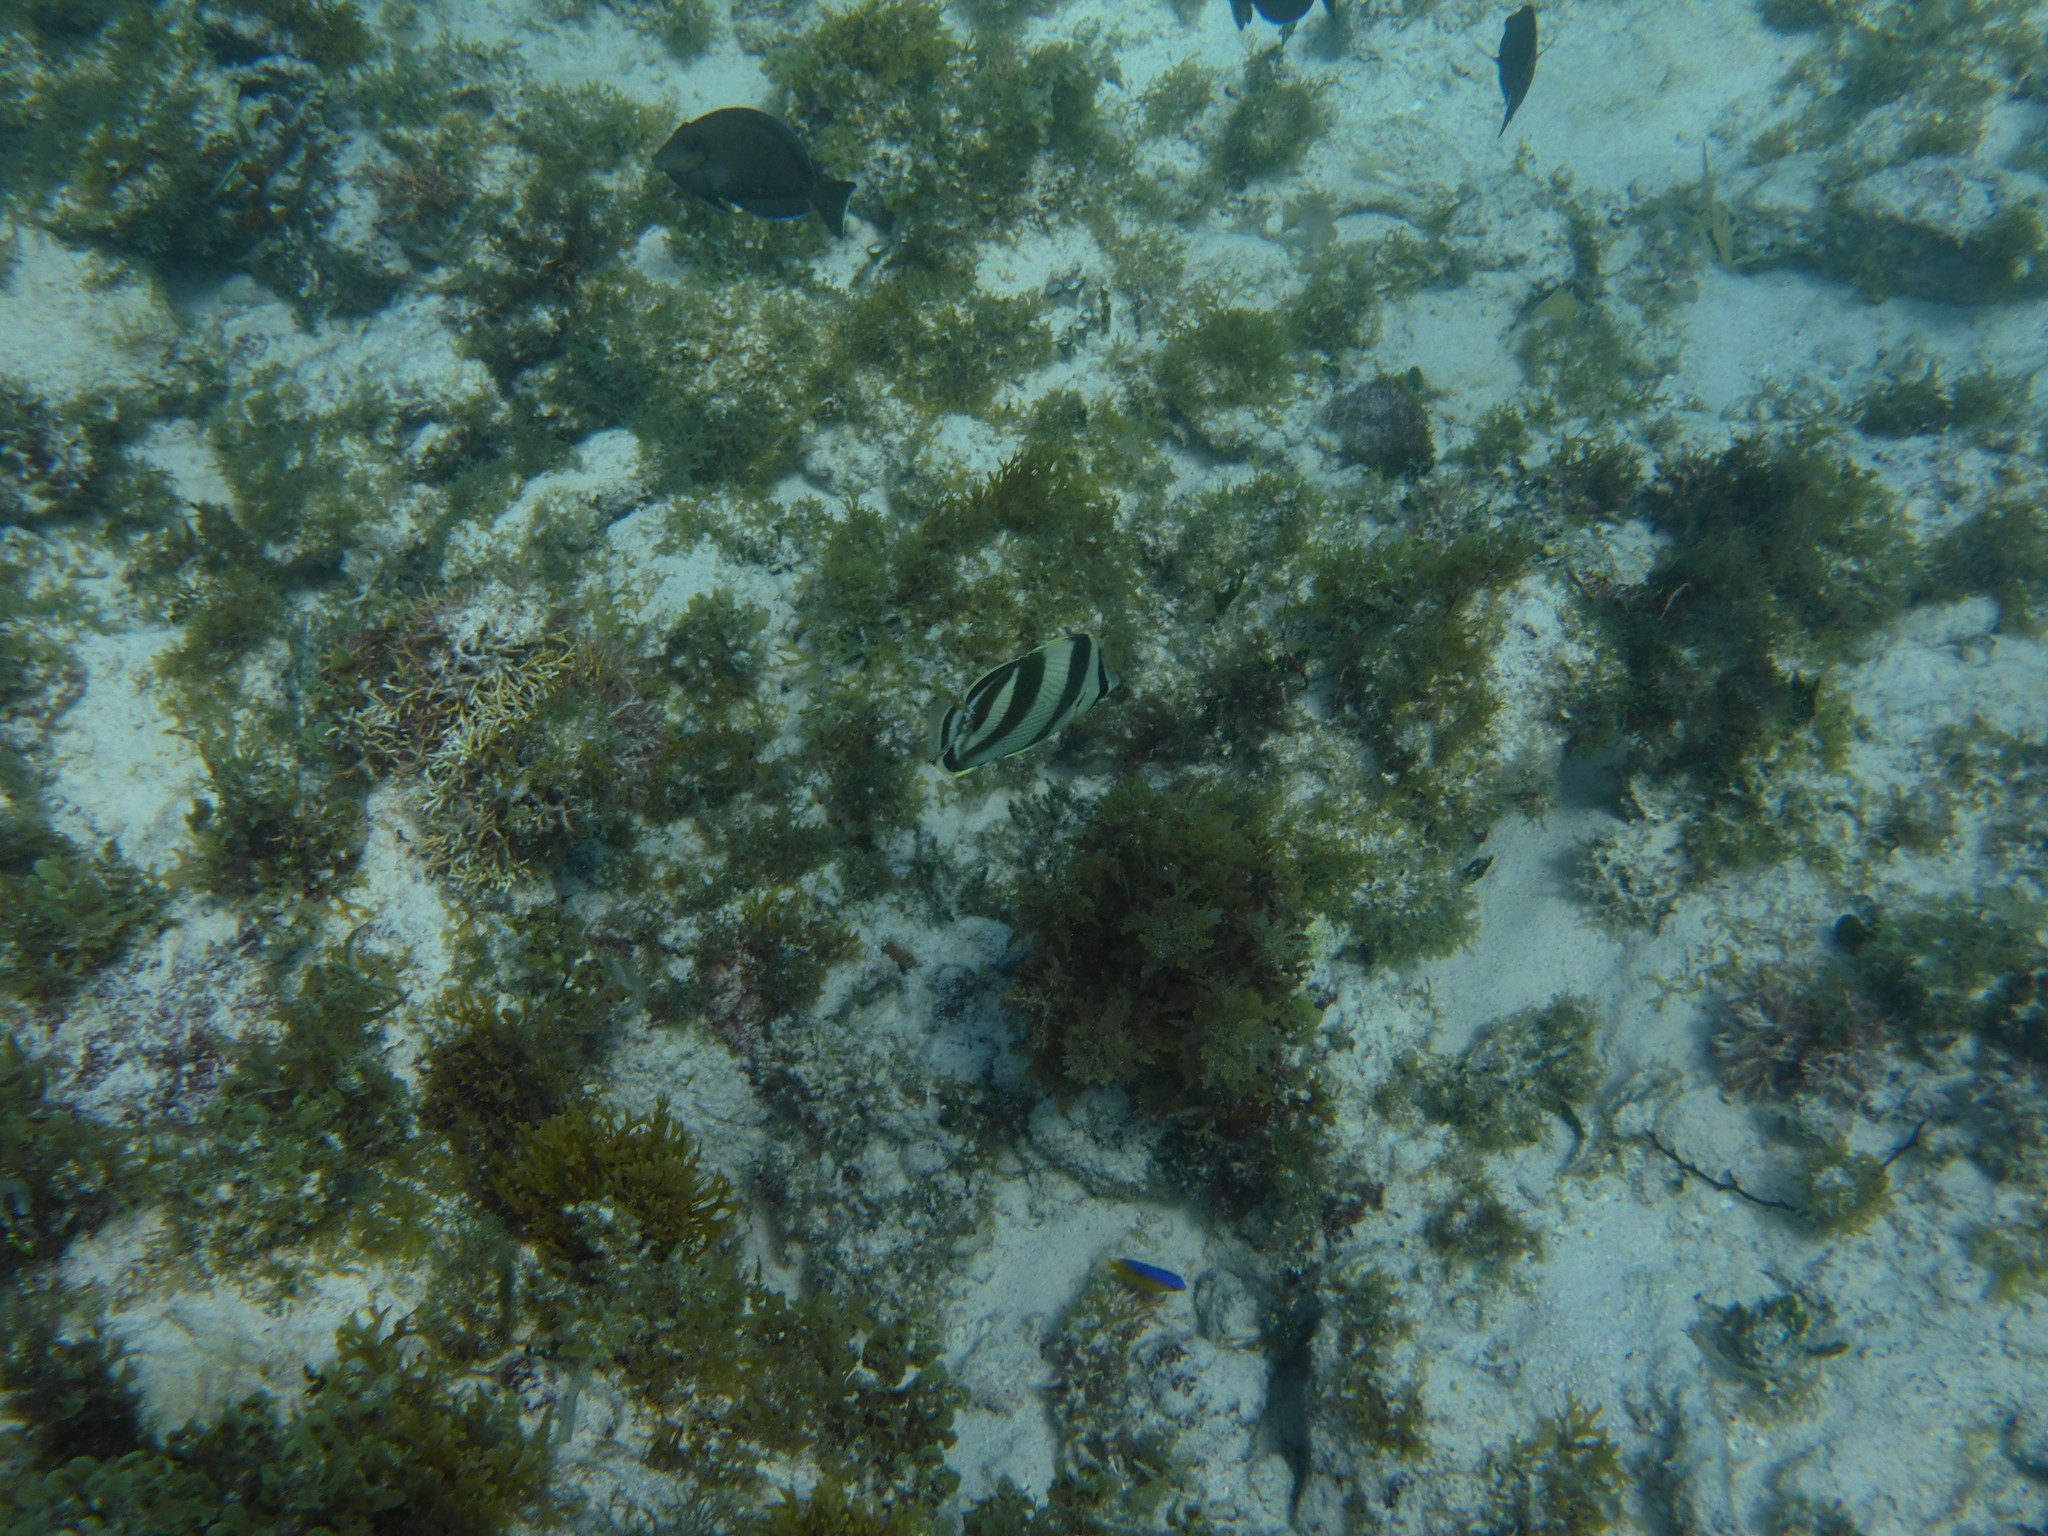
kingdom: Animalia
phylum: Chordata
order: Perciformes
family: Chaetodontidae
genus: Chaetodon
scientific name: Chaetodon striatus
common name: Banded butterflyfish
